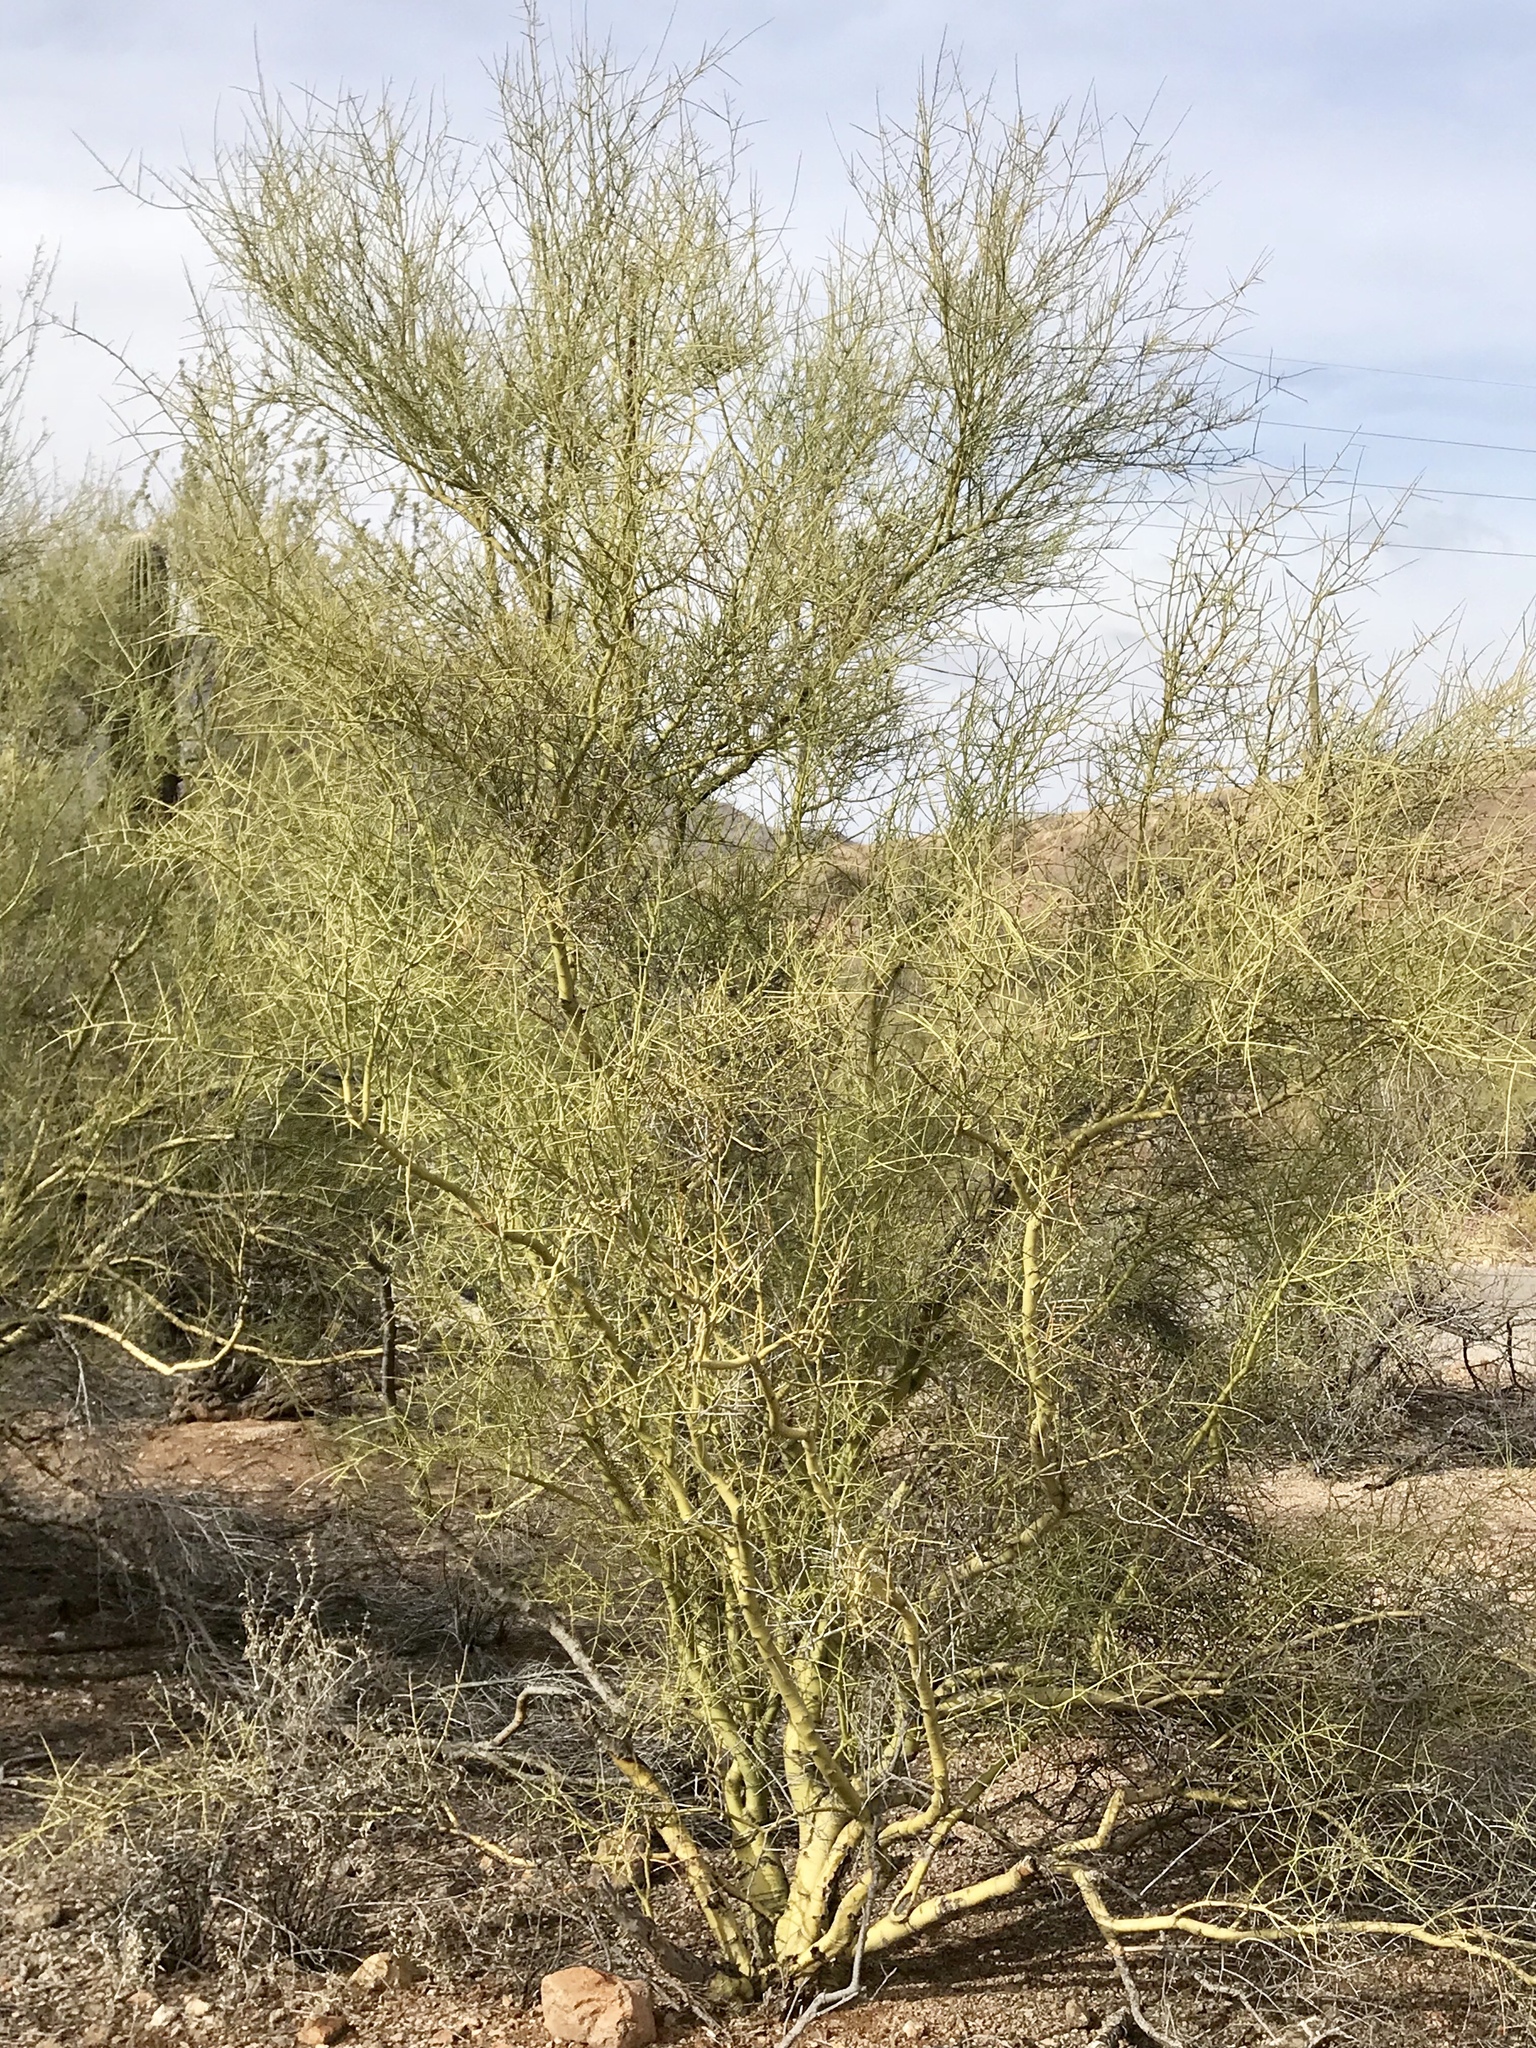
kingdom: Plantae
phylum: Tracheophyta
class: Magnoliopsida
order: Fabales
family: Fabaceae
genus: Parkinsonia
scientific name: Parkinsonia microphylla
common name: Yellow paloverde
